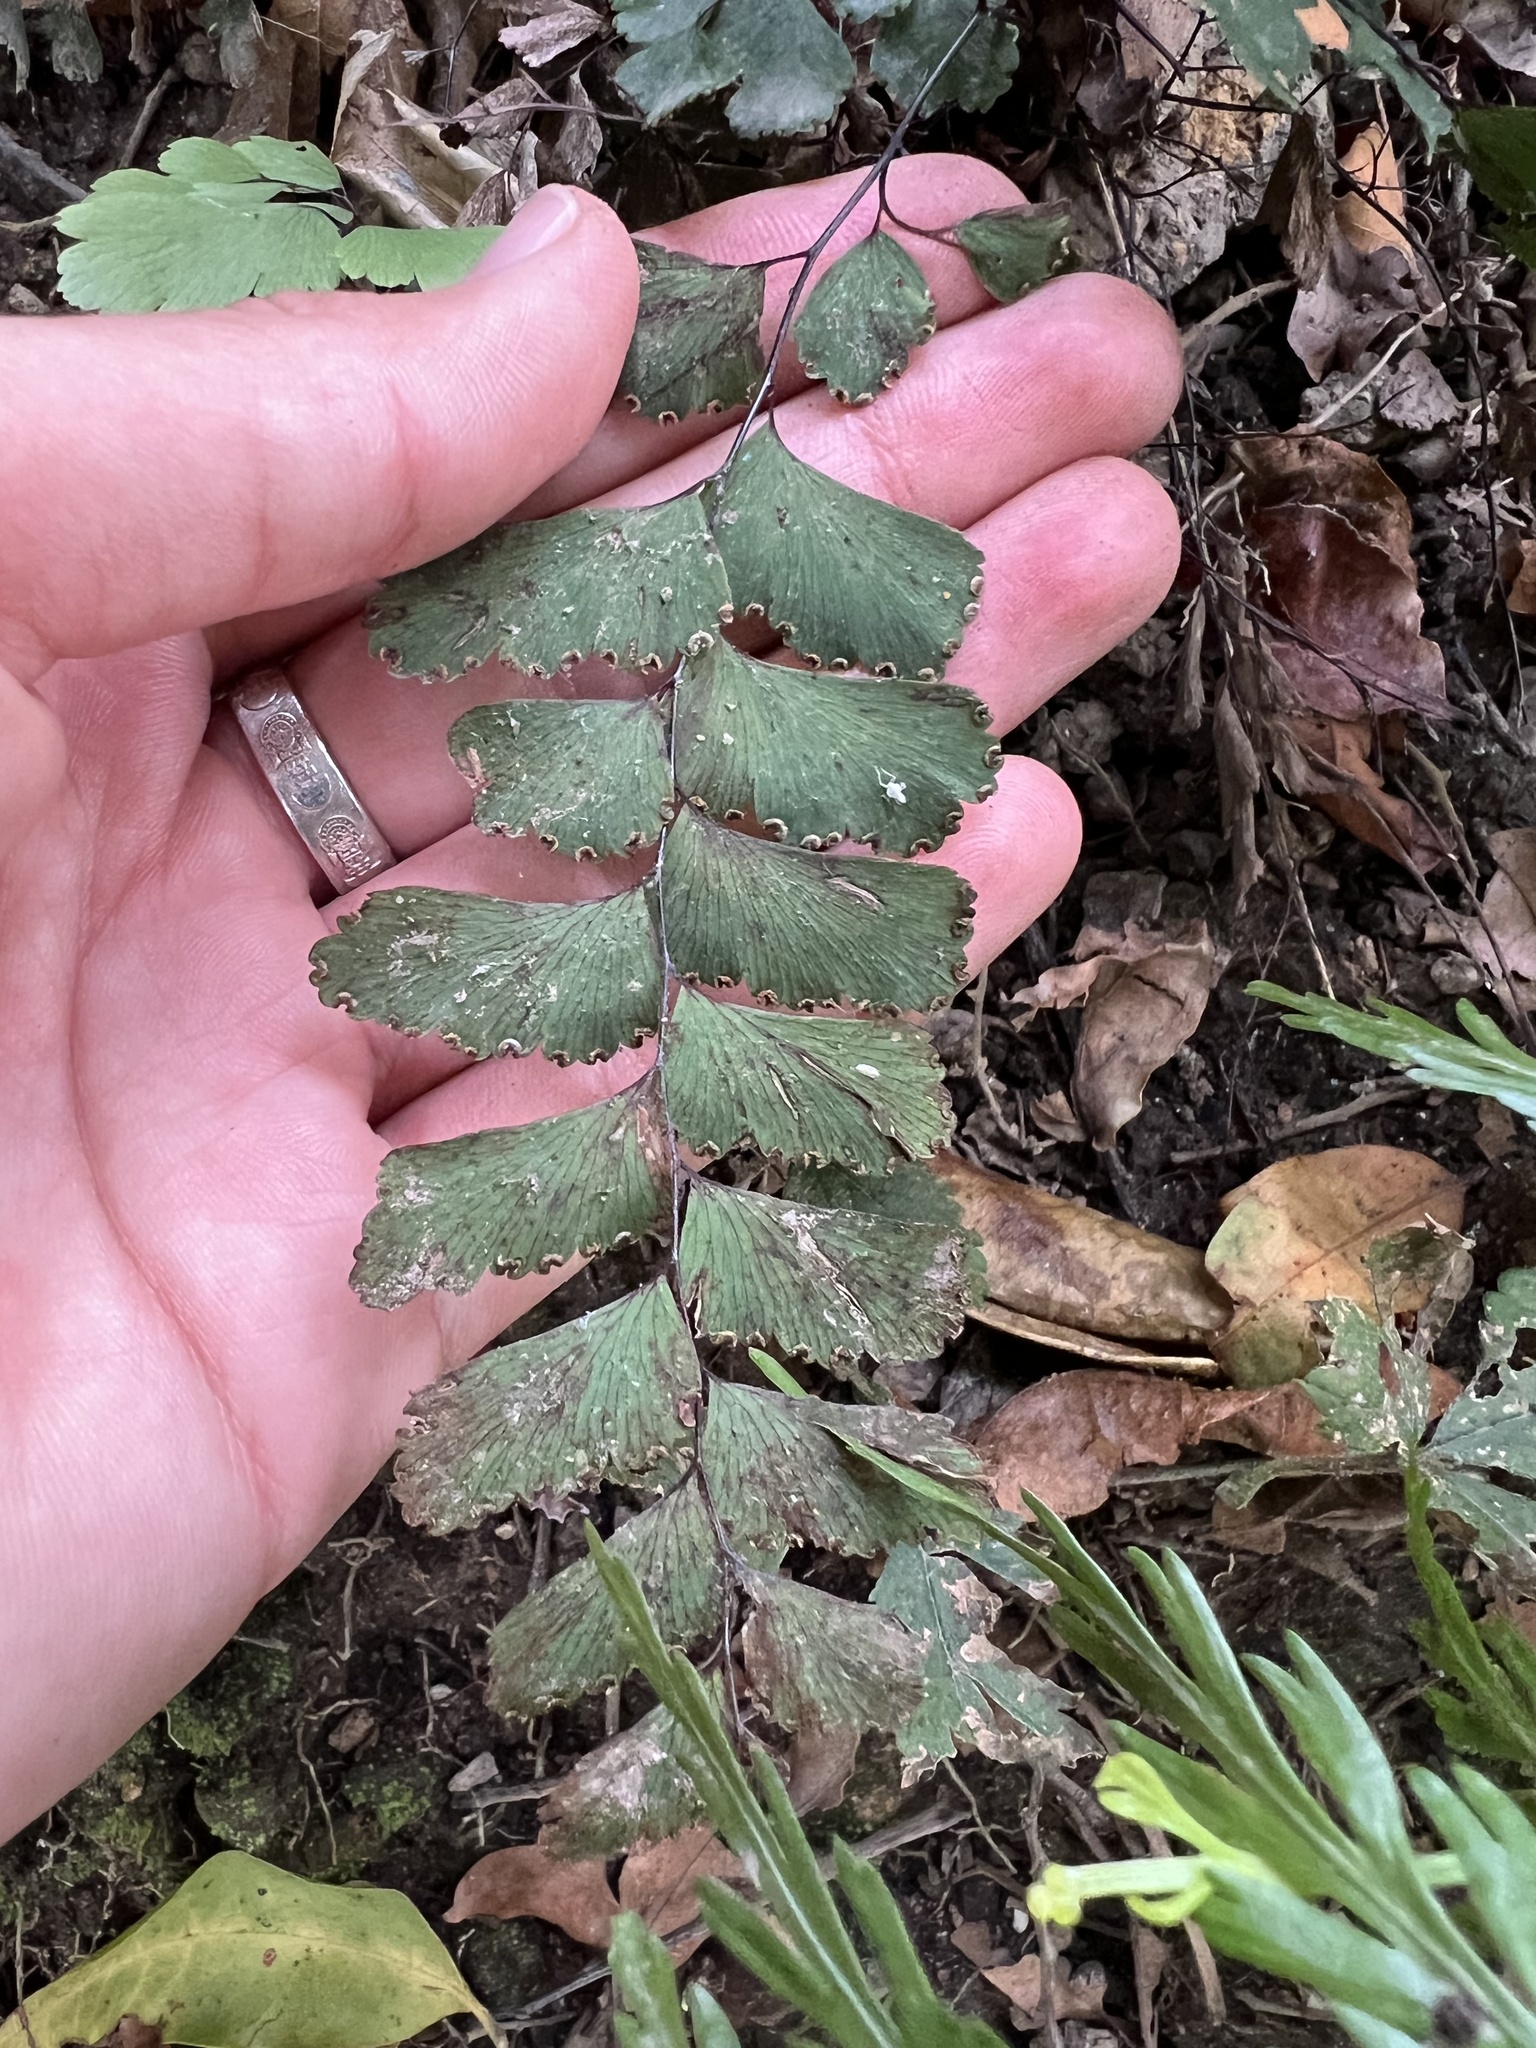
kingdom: Plantae
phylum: Tracheophyta
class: Polypodiopsida
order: Polypodiales
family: Pteridaceae
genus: Adiantum
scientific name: Adiantum cunninghamii
